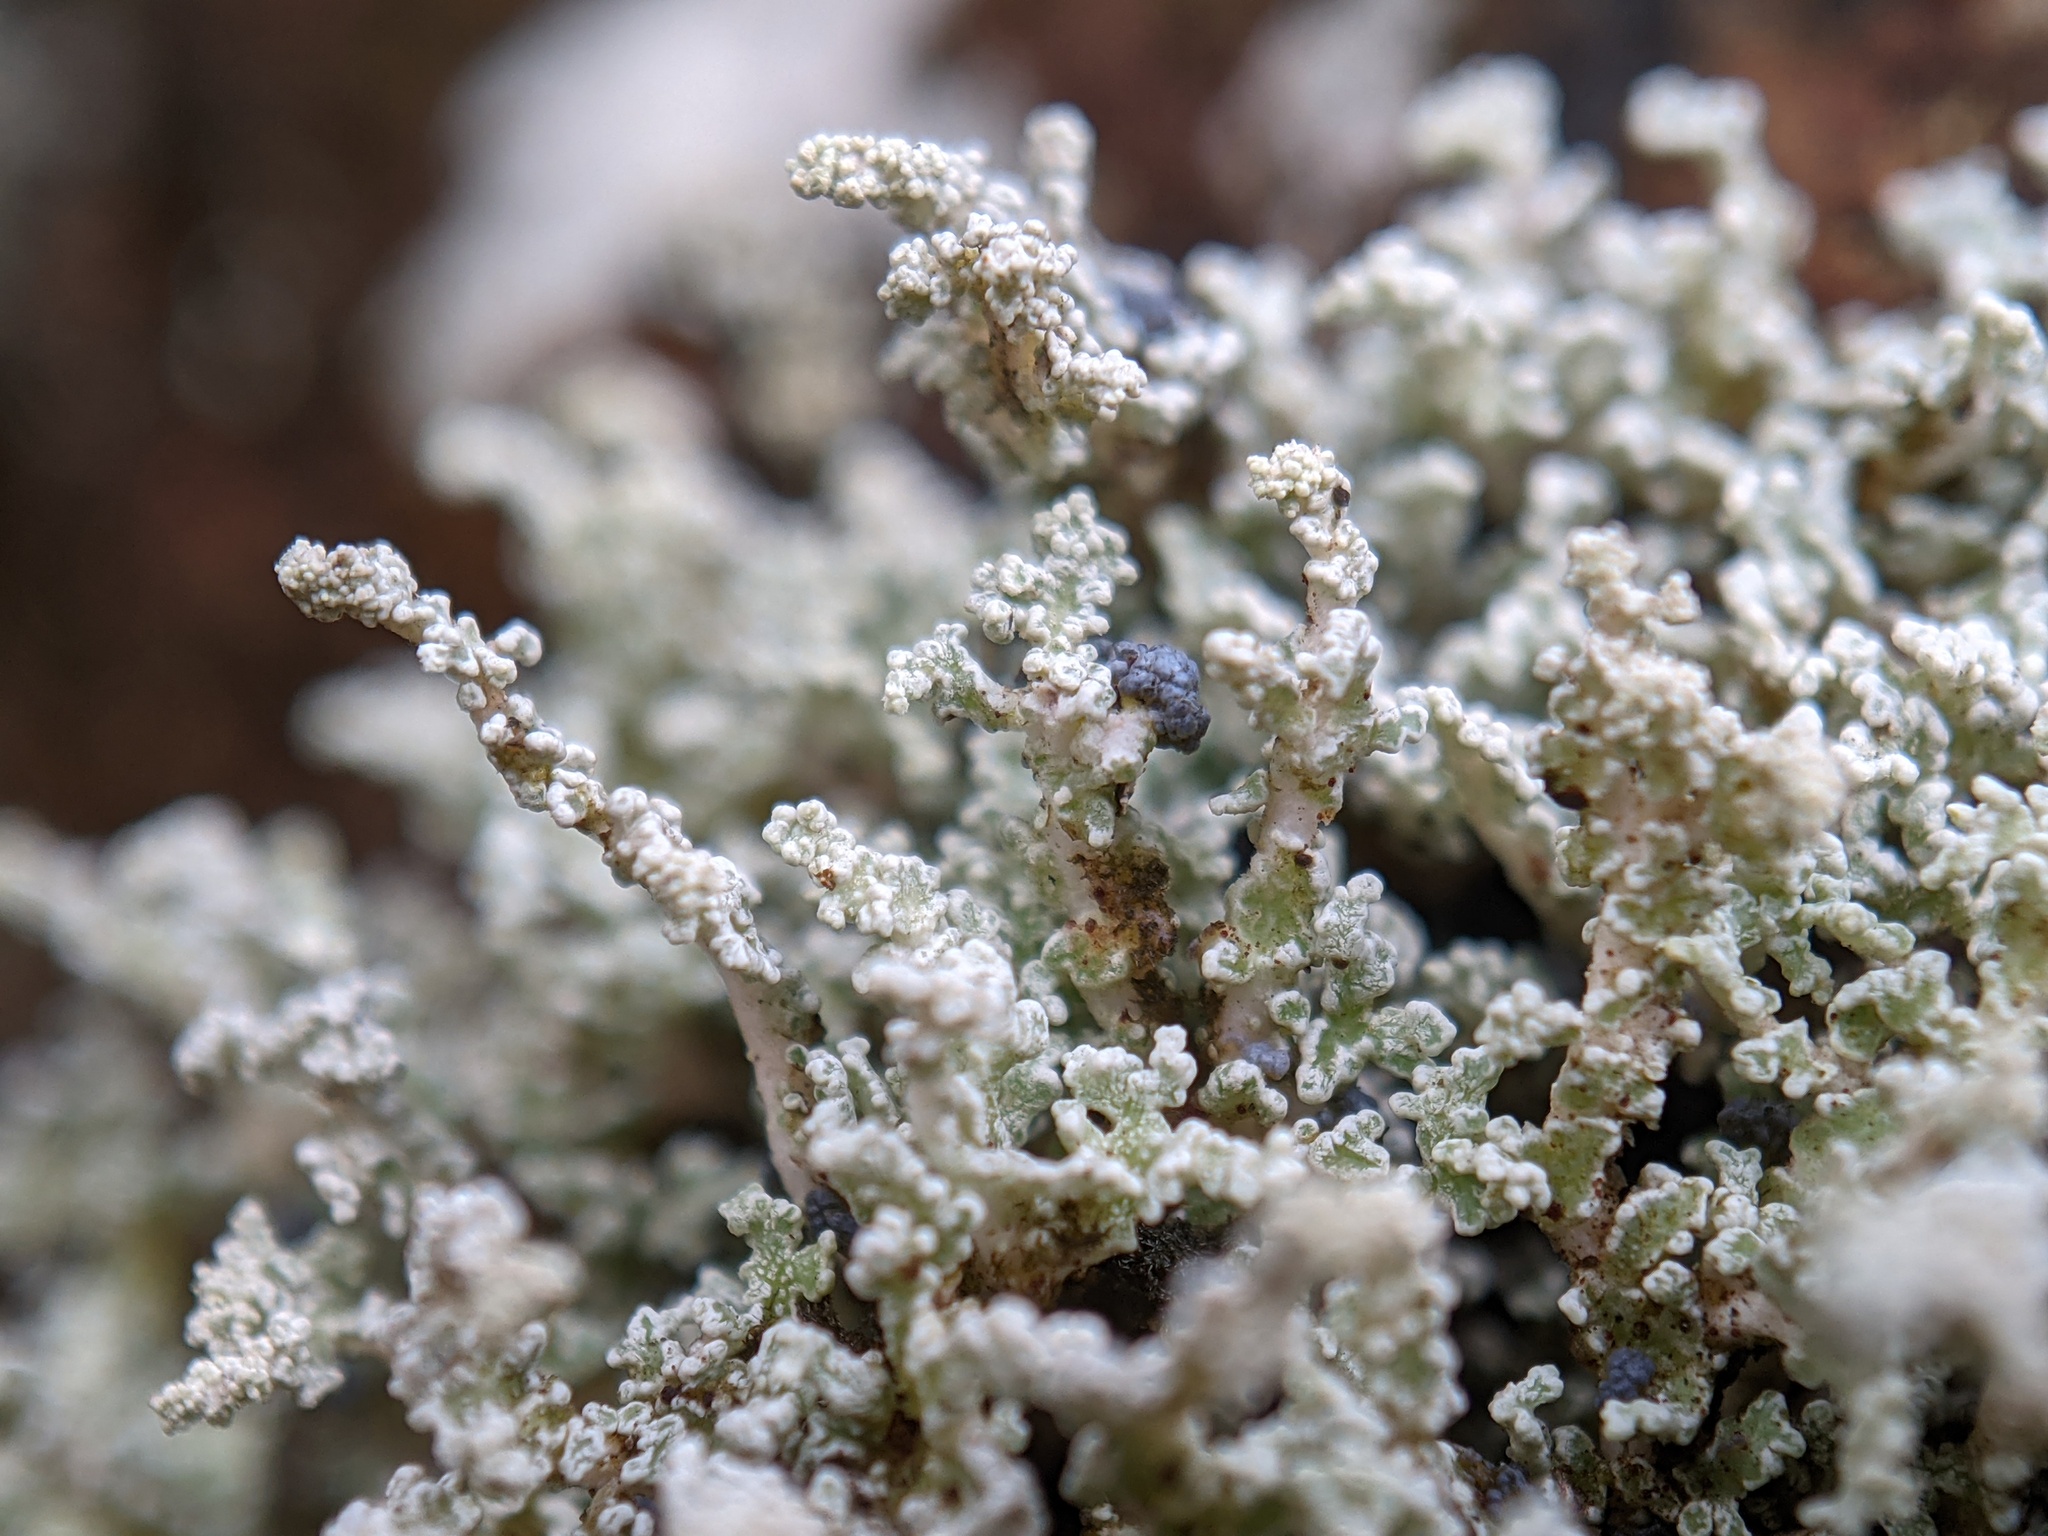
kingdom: Fungi
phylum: Ascomycota
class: Lecanoromycetes
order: Lecanorales
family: Stereocaulaceae
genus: Stereocaulon
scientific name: Stereocaulon vesuvianum
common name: Variegated foam lichen
